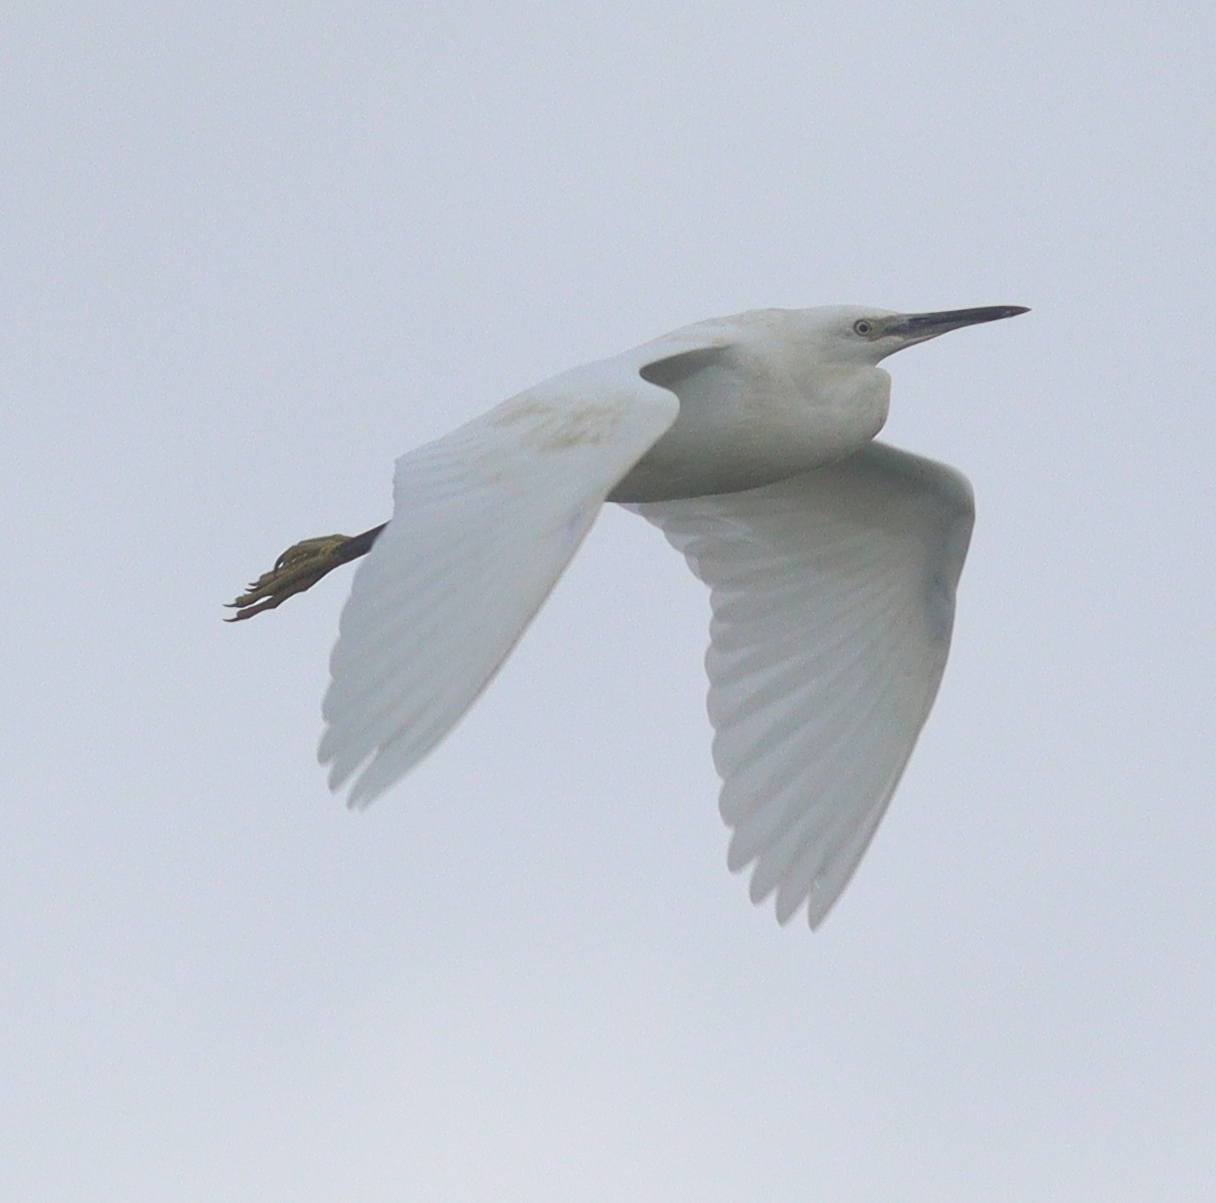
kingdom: Animalia
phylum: Chordata
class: Aves
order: Pelecaniformes
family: Ardeidae
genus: Egretta
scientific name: Egretta garzetta
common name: Little egret
